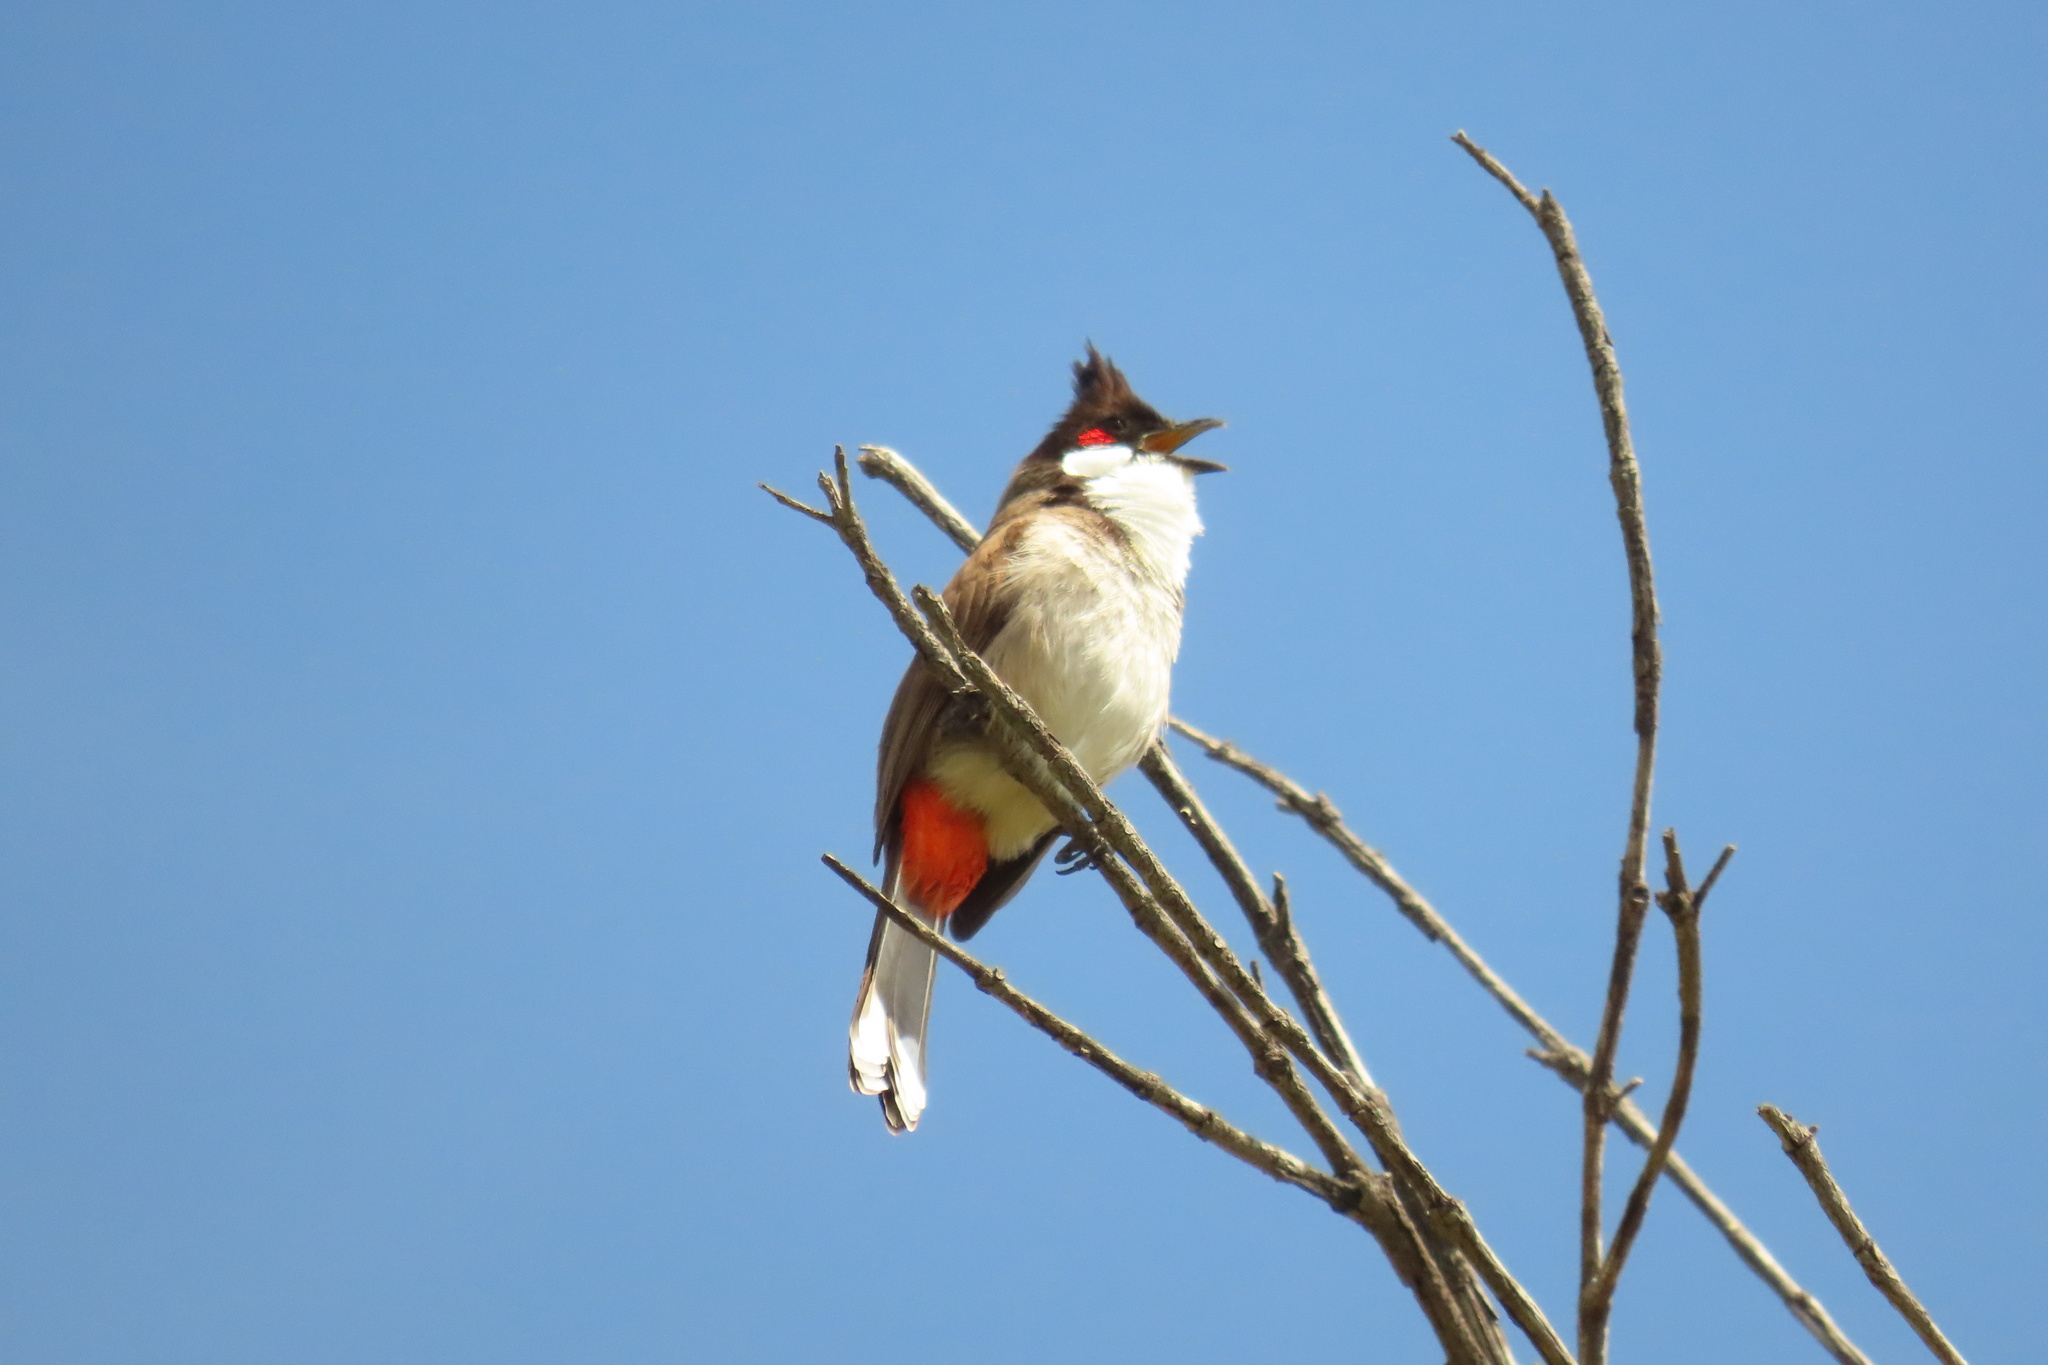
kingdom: Animalia
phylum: Chordata
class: Aves
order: Passeriformes
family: Pycnonotidae
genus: Pycnonotus
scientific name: Pycnonotus jocosus
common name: Red-whiskered bulbul
